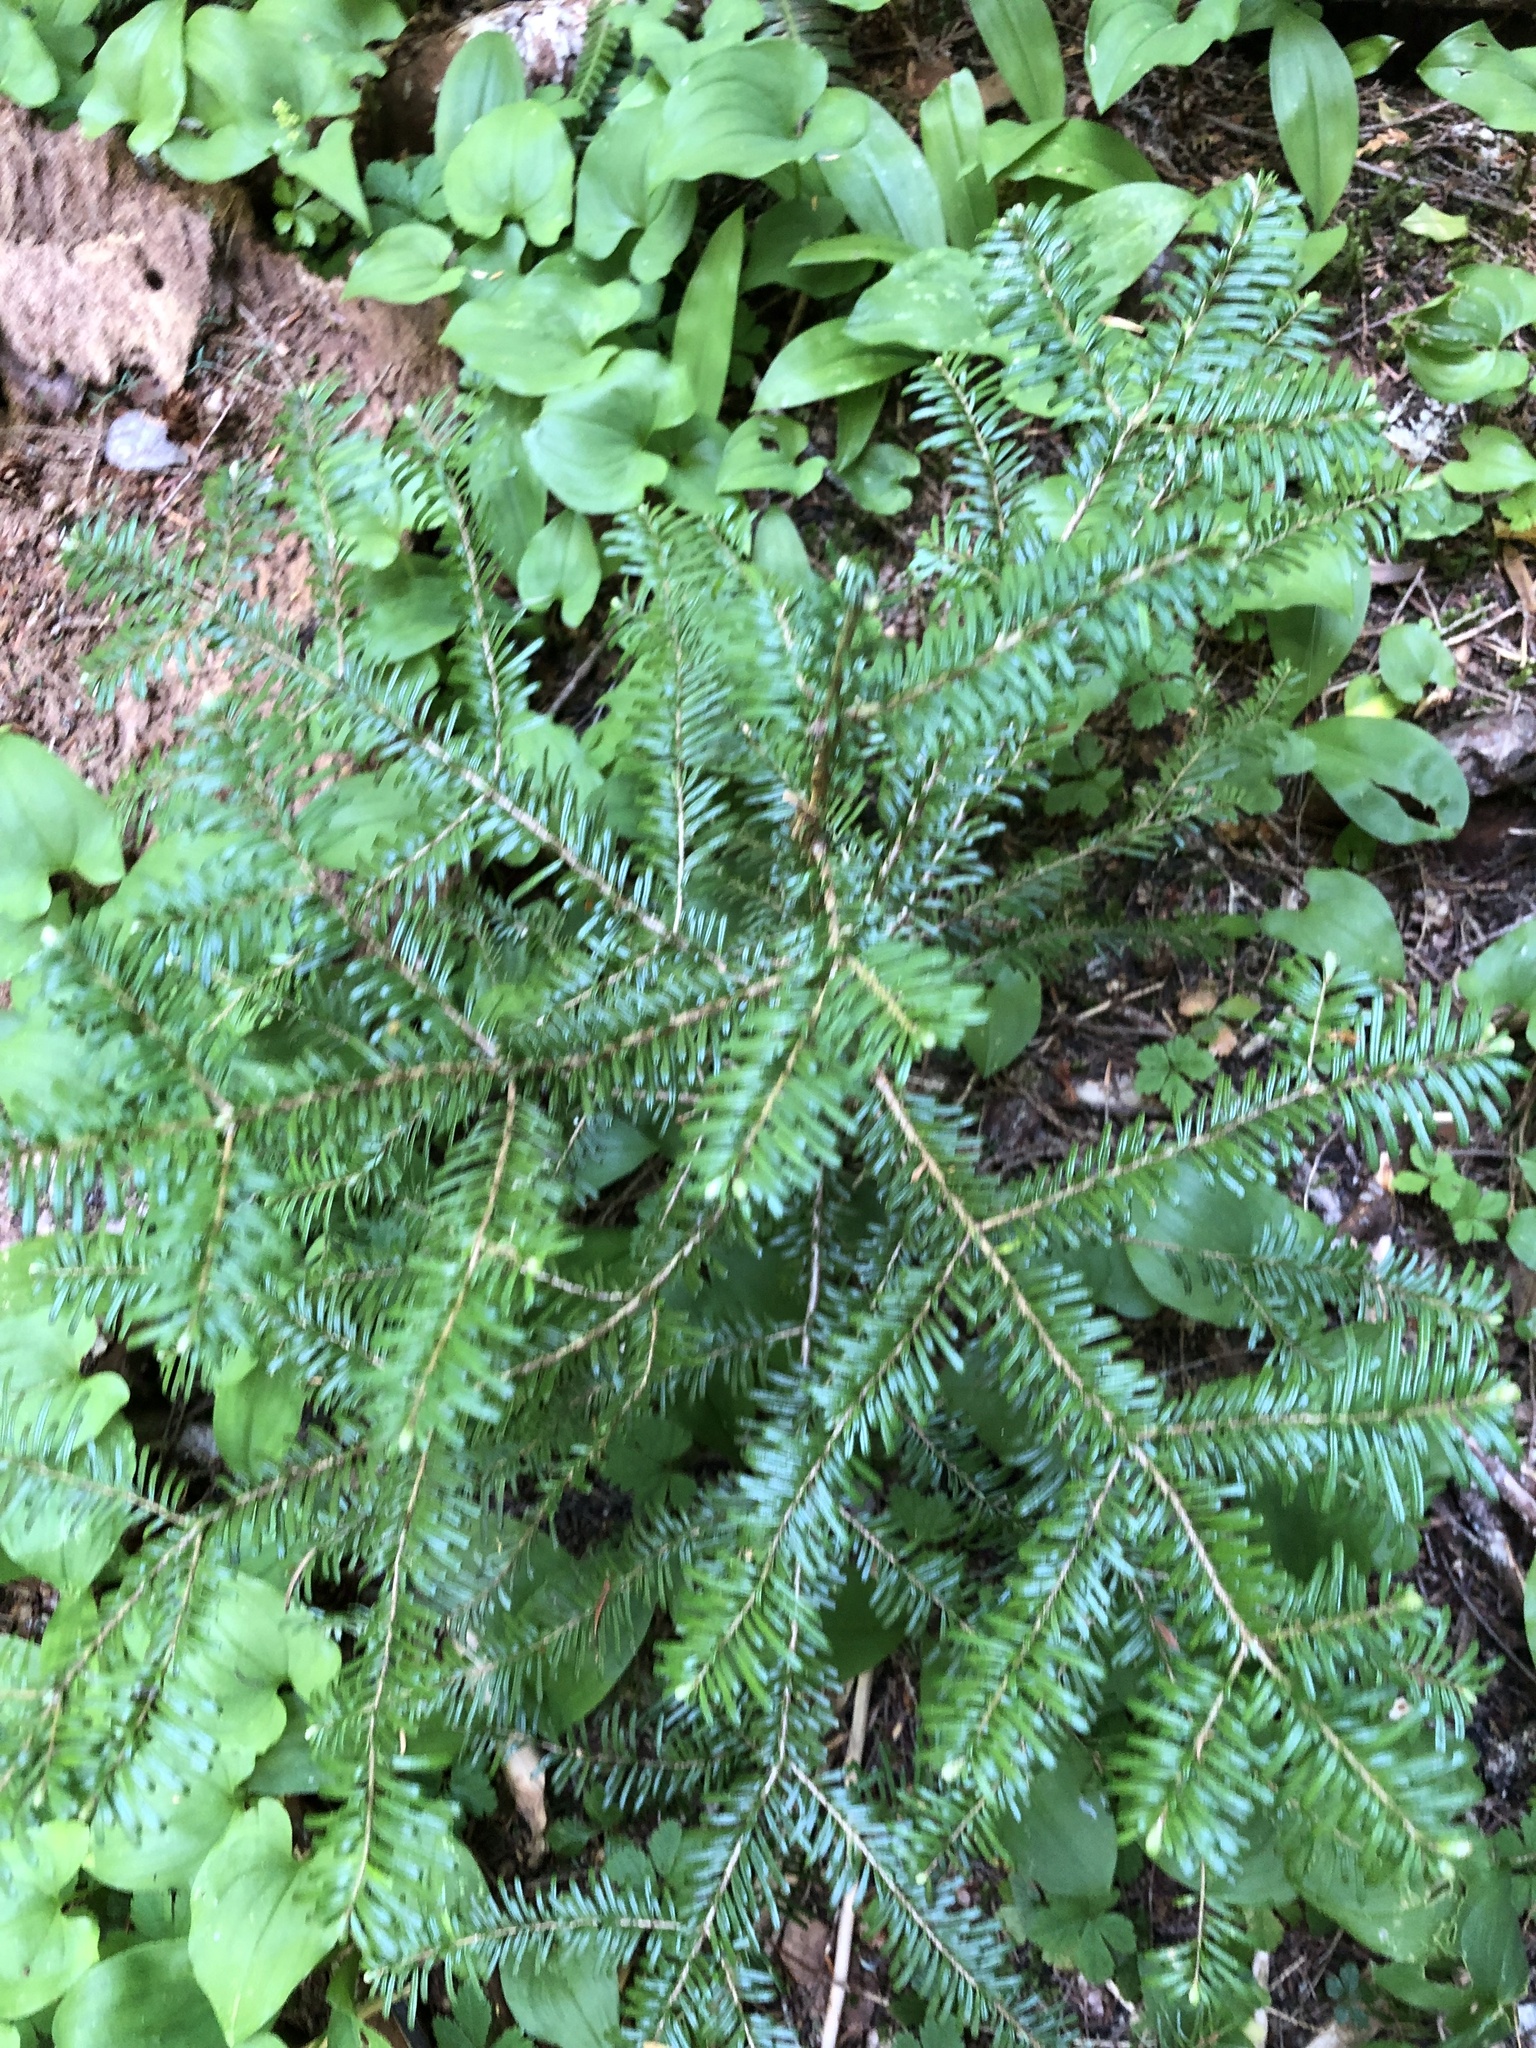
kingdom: Plantae
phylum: Tracheophyta
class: Pinopsida
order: Pinales
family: Pinaceae
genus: Abies
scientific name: Abies amabilis
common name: Pacific silver fir
